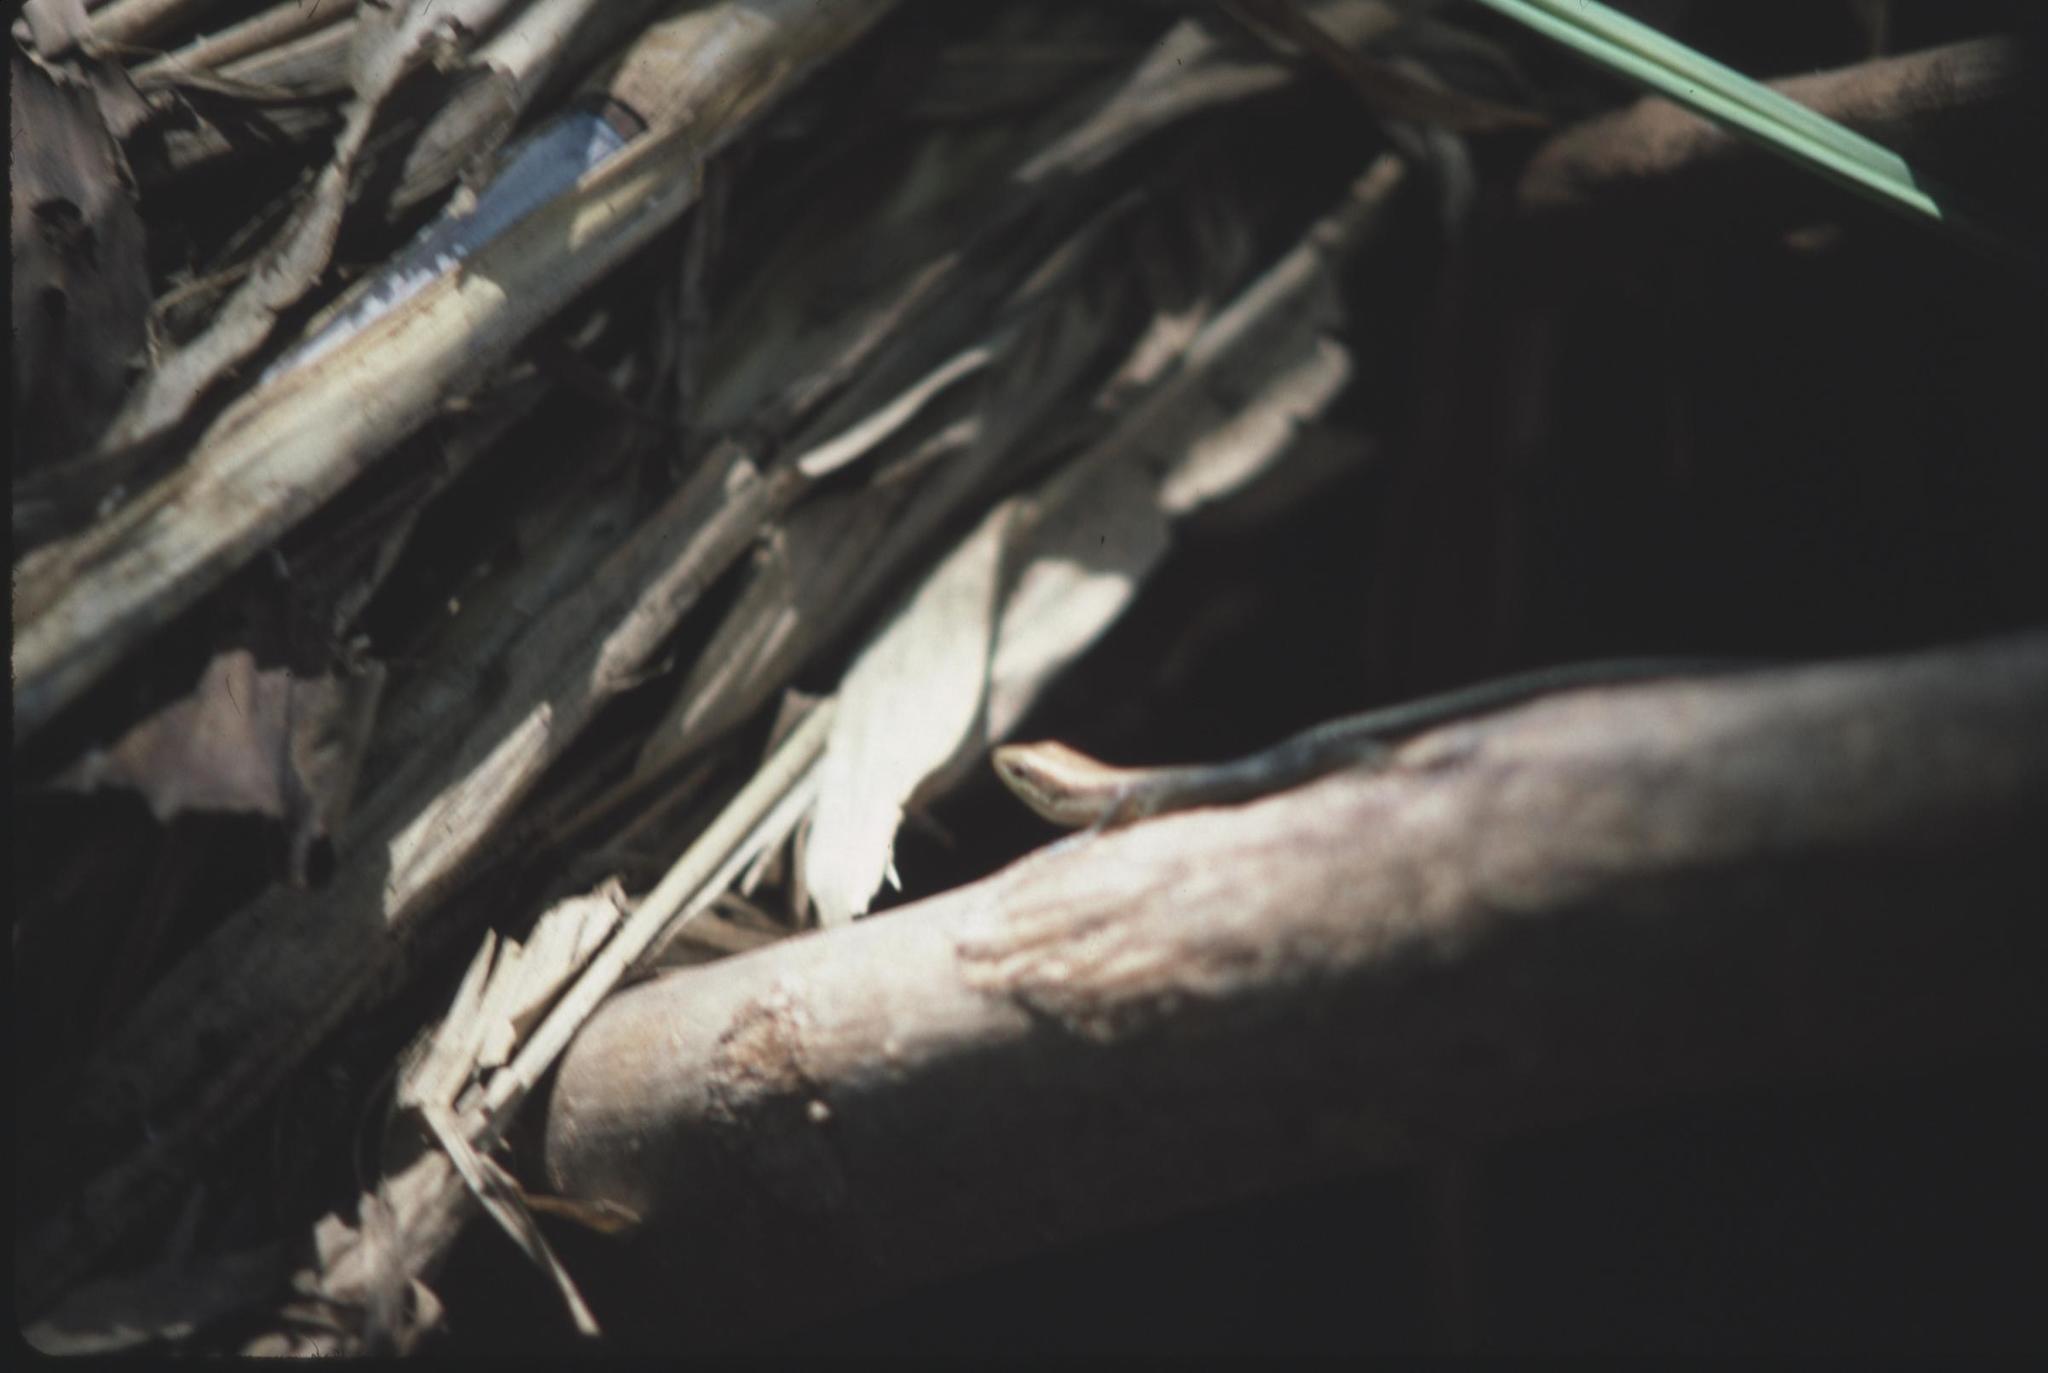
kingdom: Animalia
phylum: Chordata
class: Squamata
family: Scincidae
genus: Trachylepis
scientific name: Trachylepis varia
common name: Eastern variable skink
